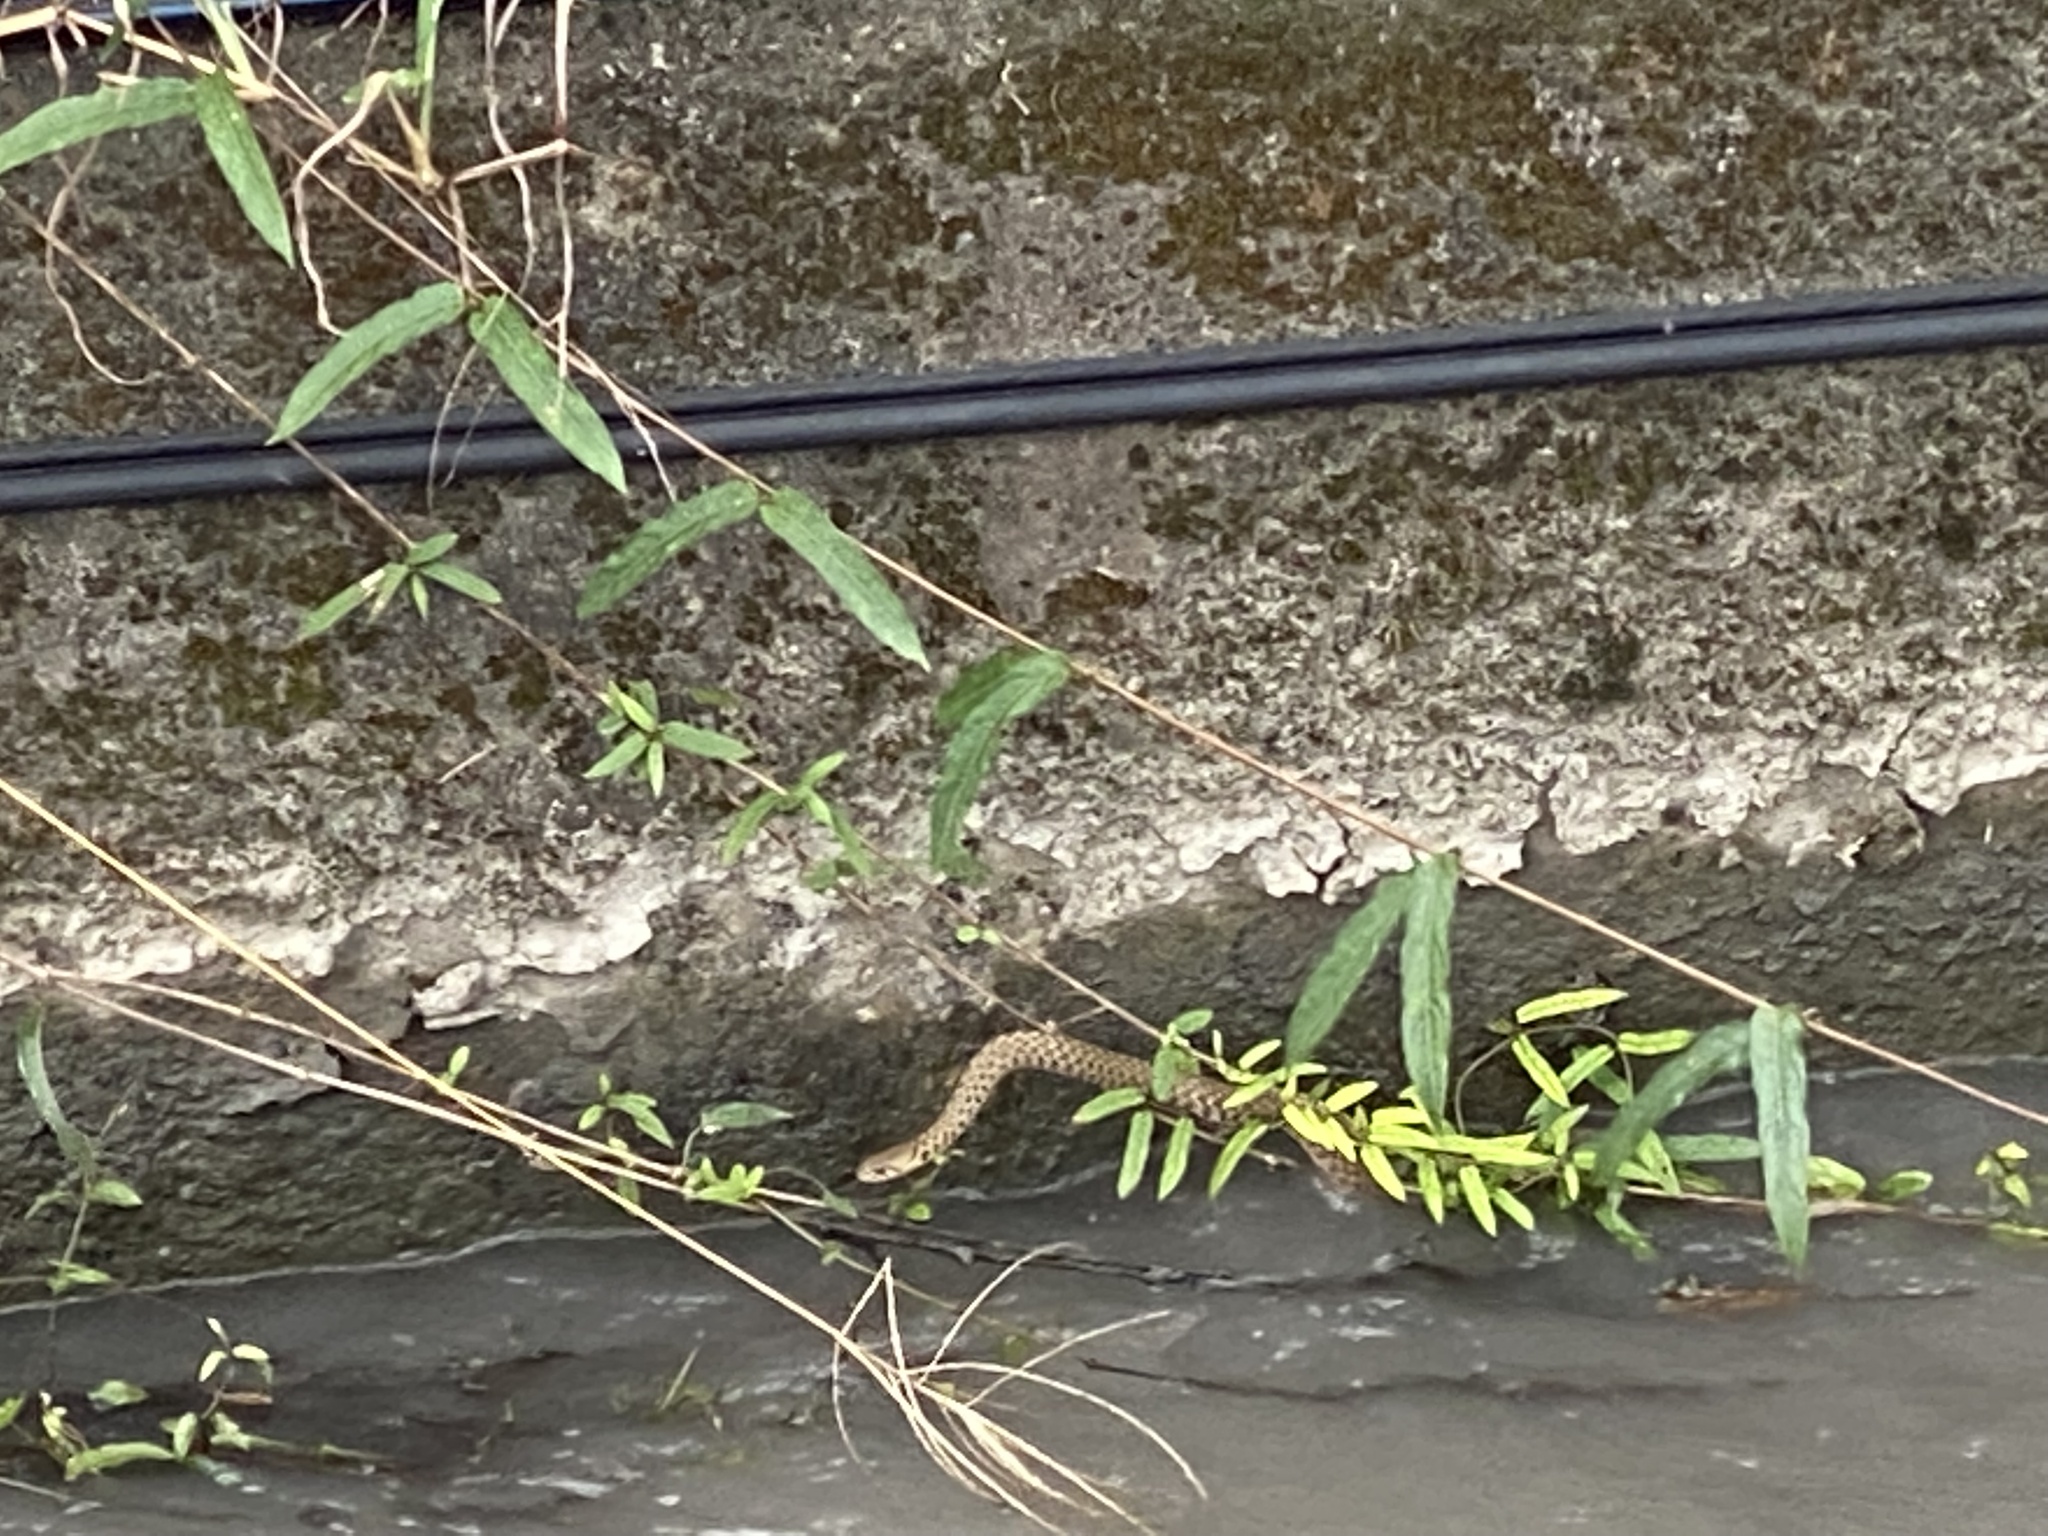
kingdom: Animalia
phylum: Chordata
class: Squamata
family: Colubridae
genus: Fowlea
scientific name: Fowlea flavipunctatus
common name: Yellow-spotted keelback
